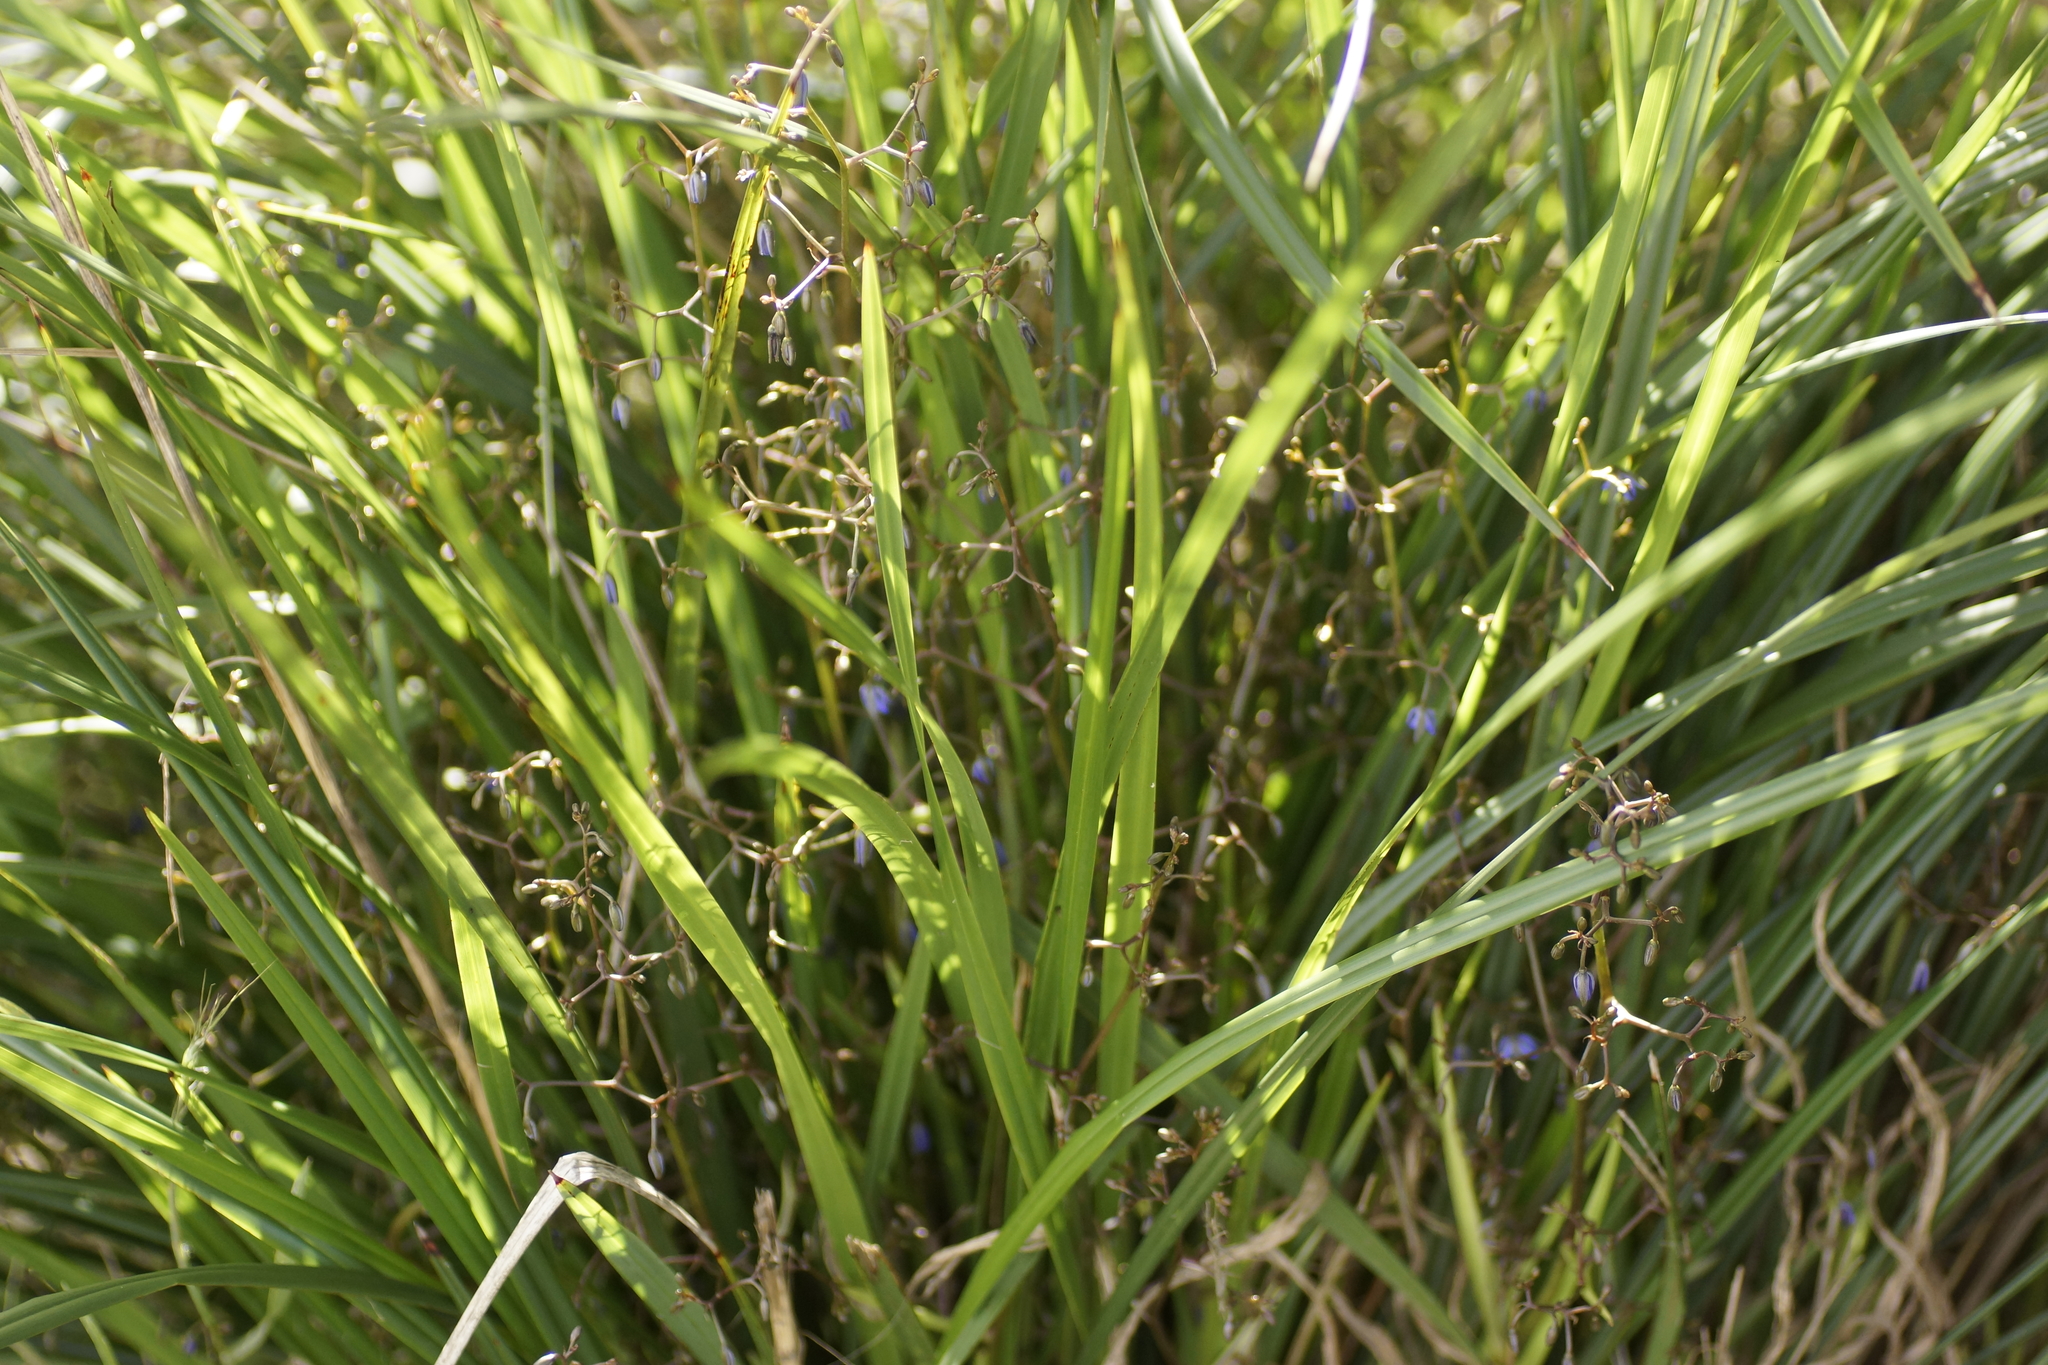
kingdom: Plantae
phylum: Tracheophyta
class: Liliopsida
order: Asparagales
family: Asphodelaceae
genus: Dianella
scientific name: Dianella brevicaulis
